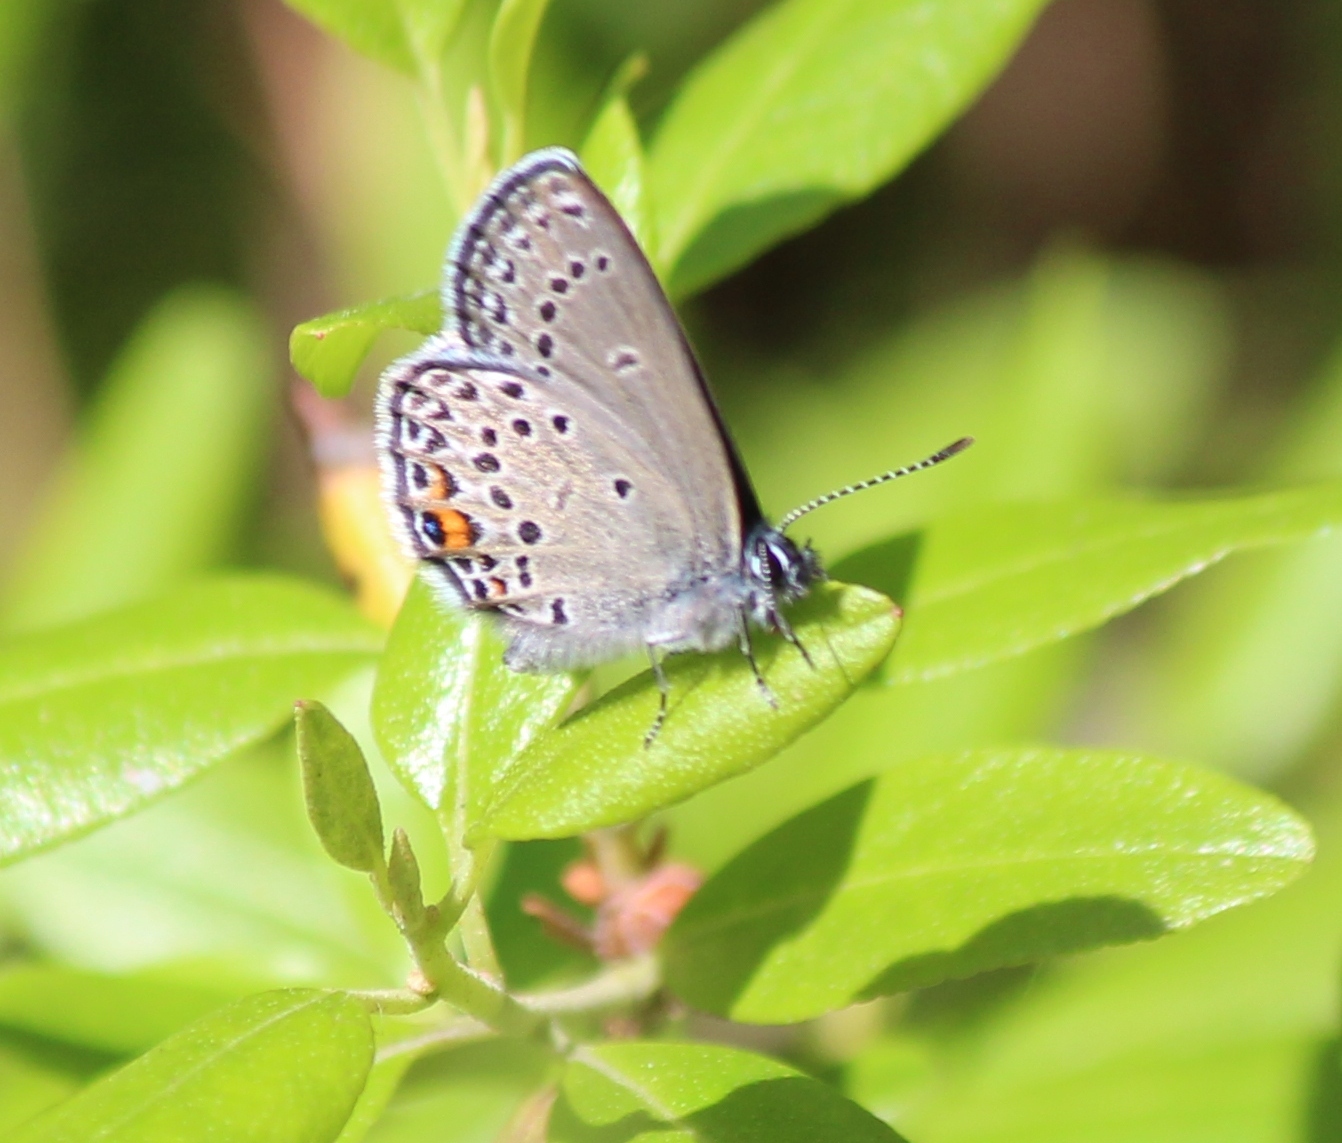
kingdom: Animalia
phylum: Arthropoda
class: Insecta
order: Lepidoptera
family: Lycaenidae
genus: Vacciniina
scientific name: Vacciniina optilete
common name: Cranberry blue
